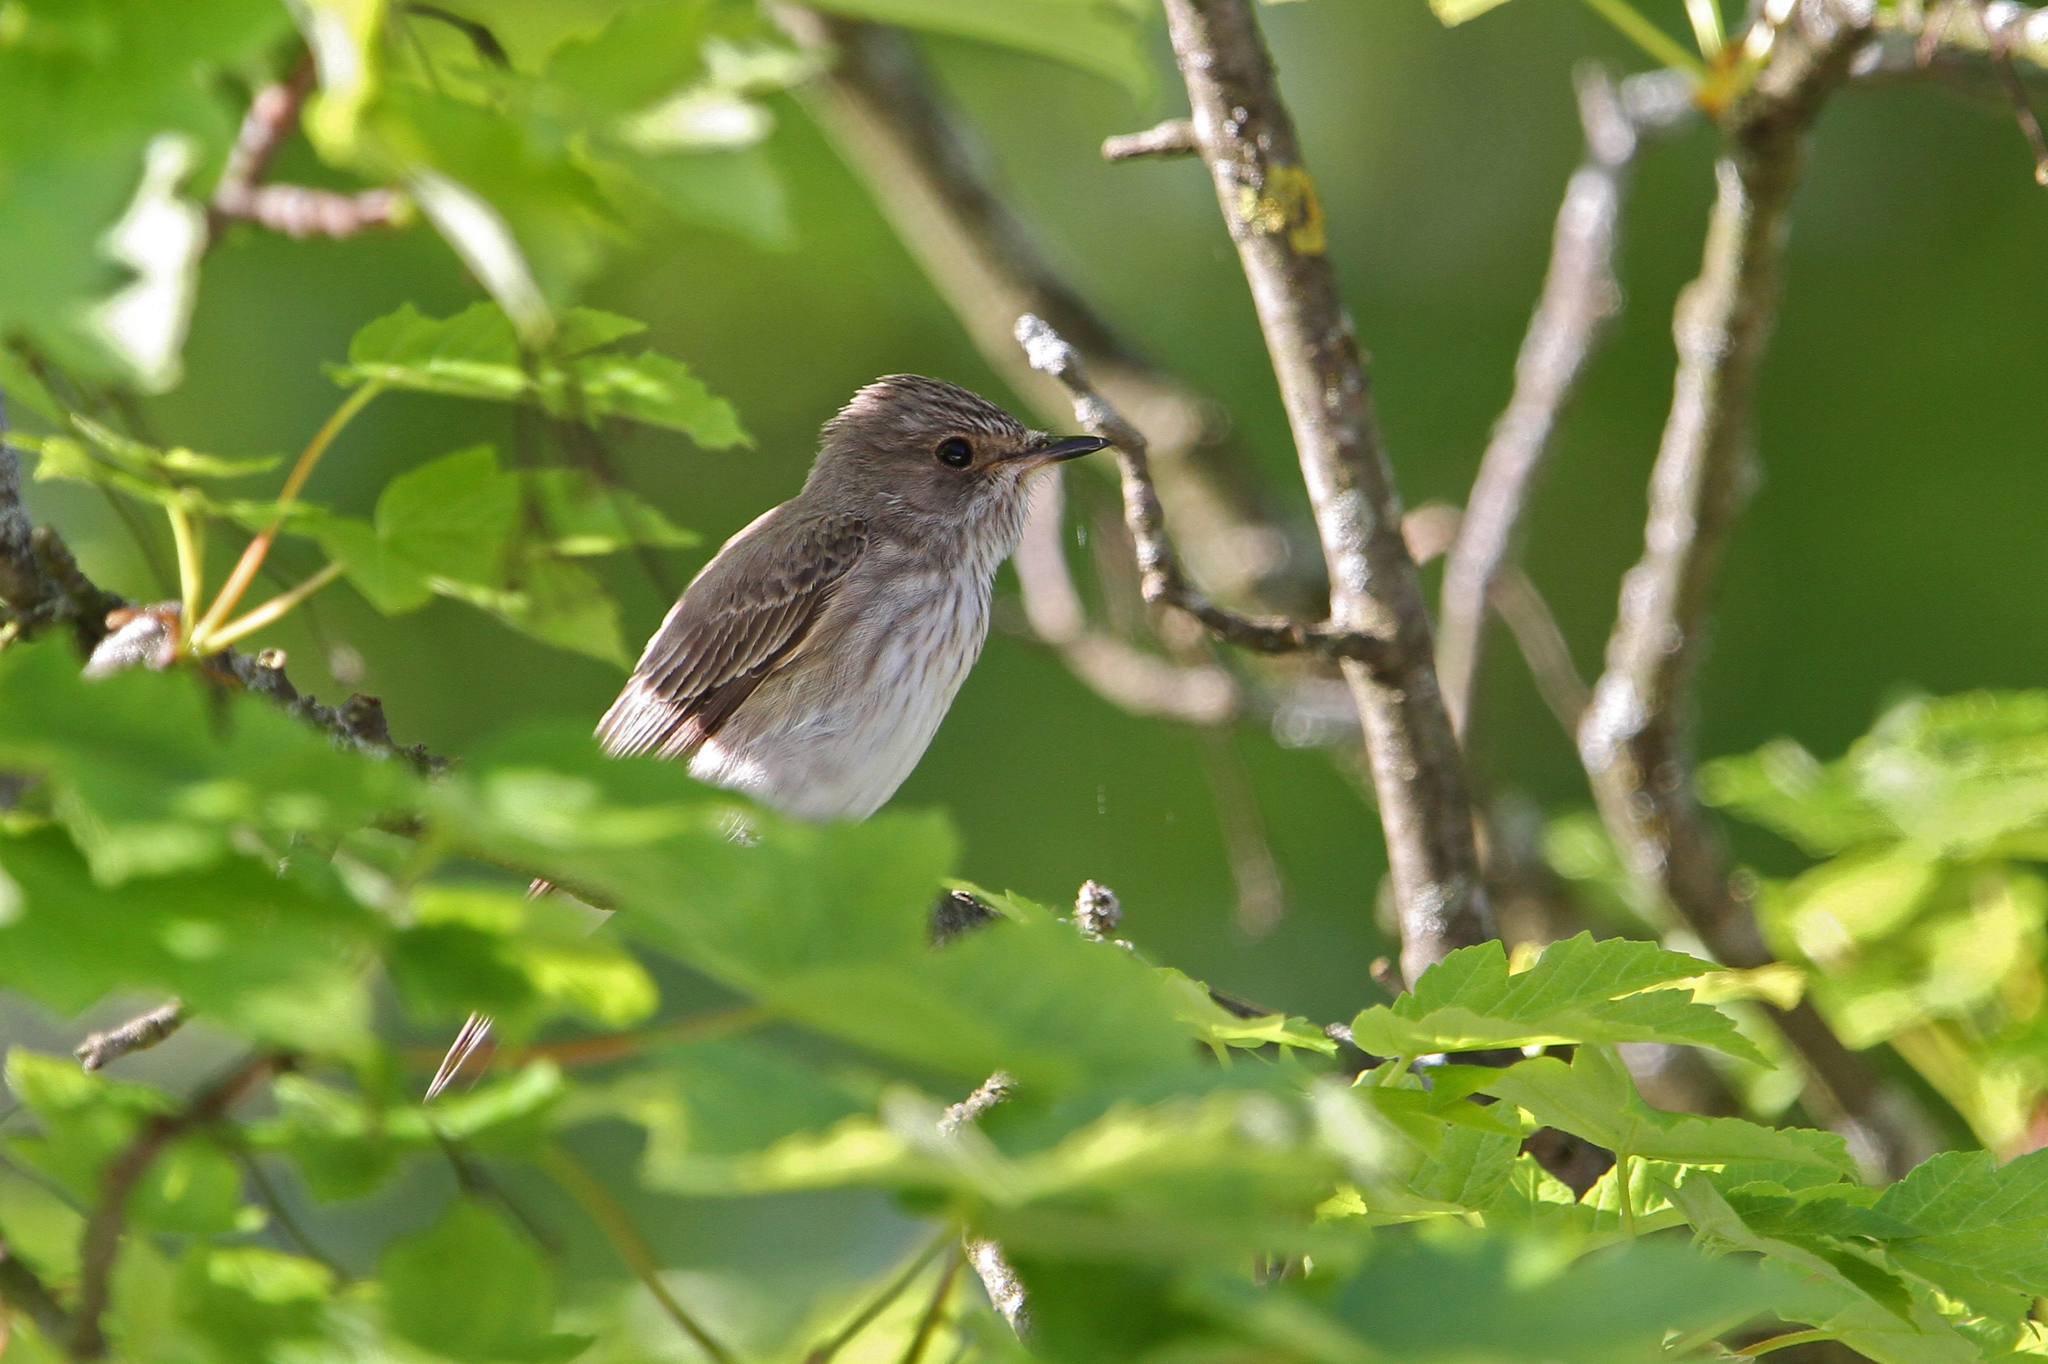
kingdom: Animalia
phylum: Chordata
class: Aves
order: Passeriformes
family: Muscicapidae
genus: Muscicapa
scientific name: Muscicapa striata
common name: Spotted flycatcher
